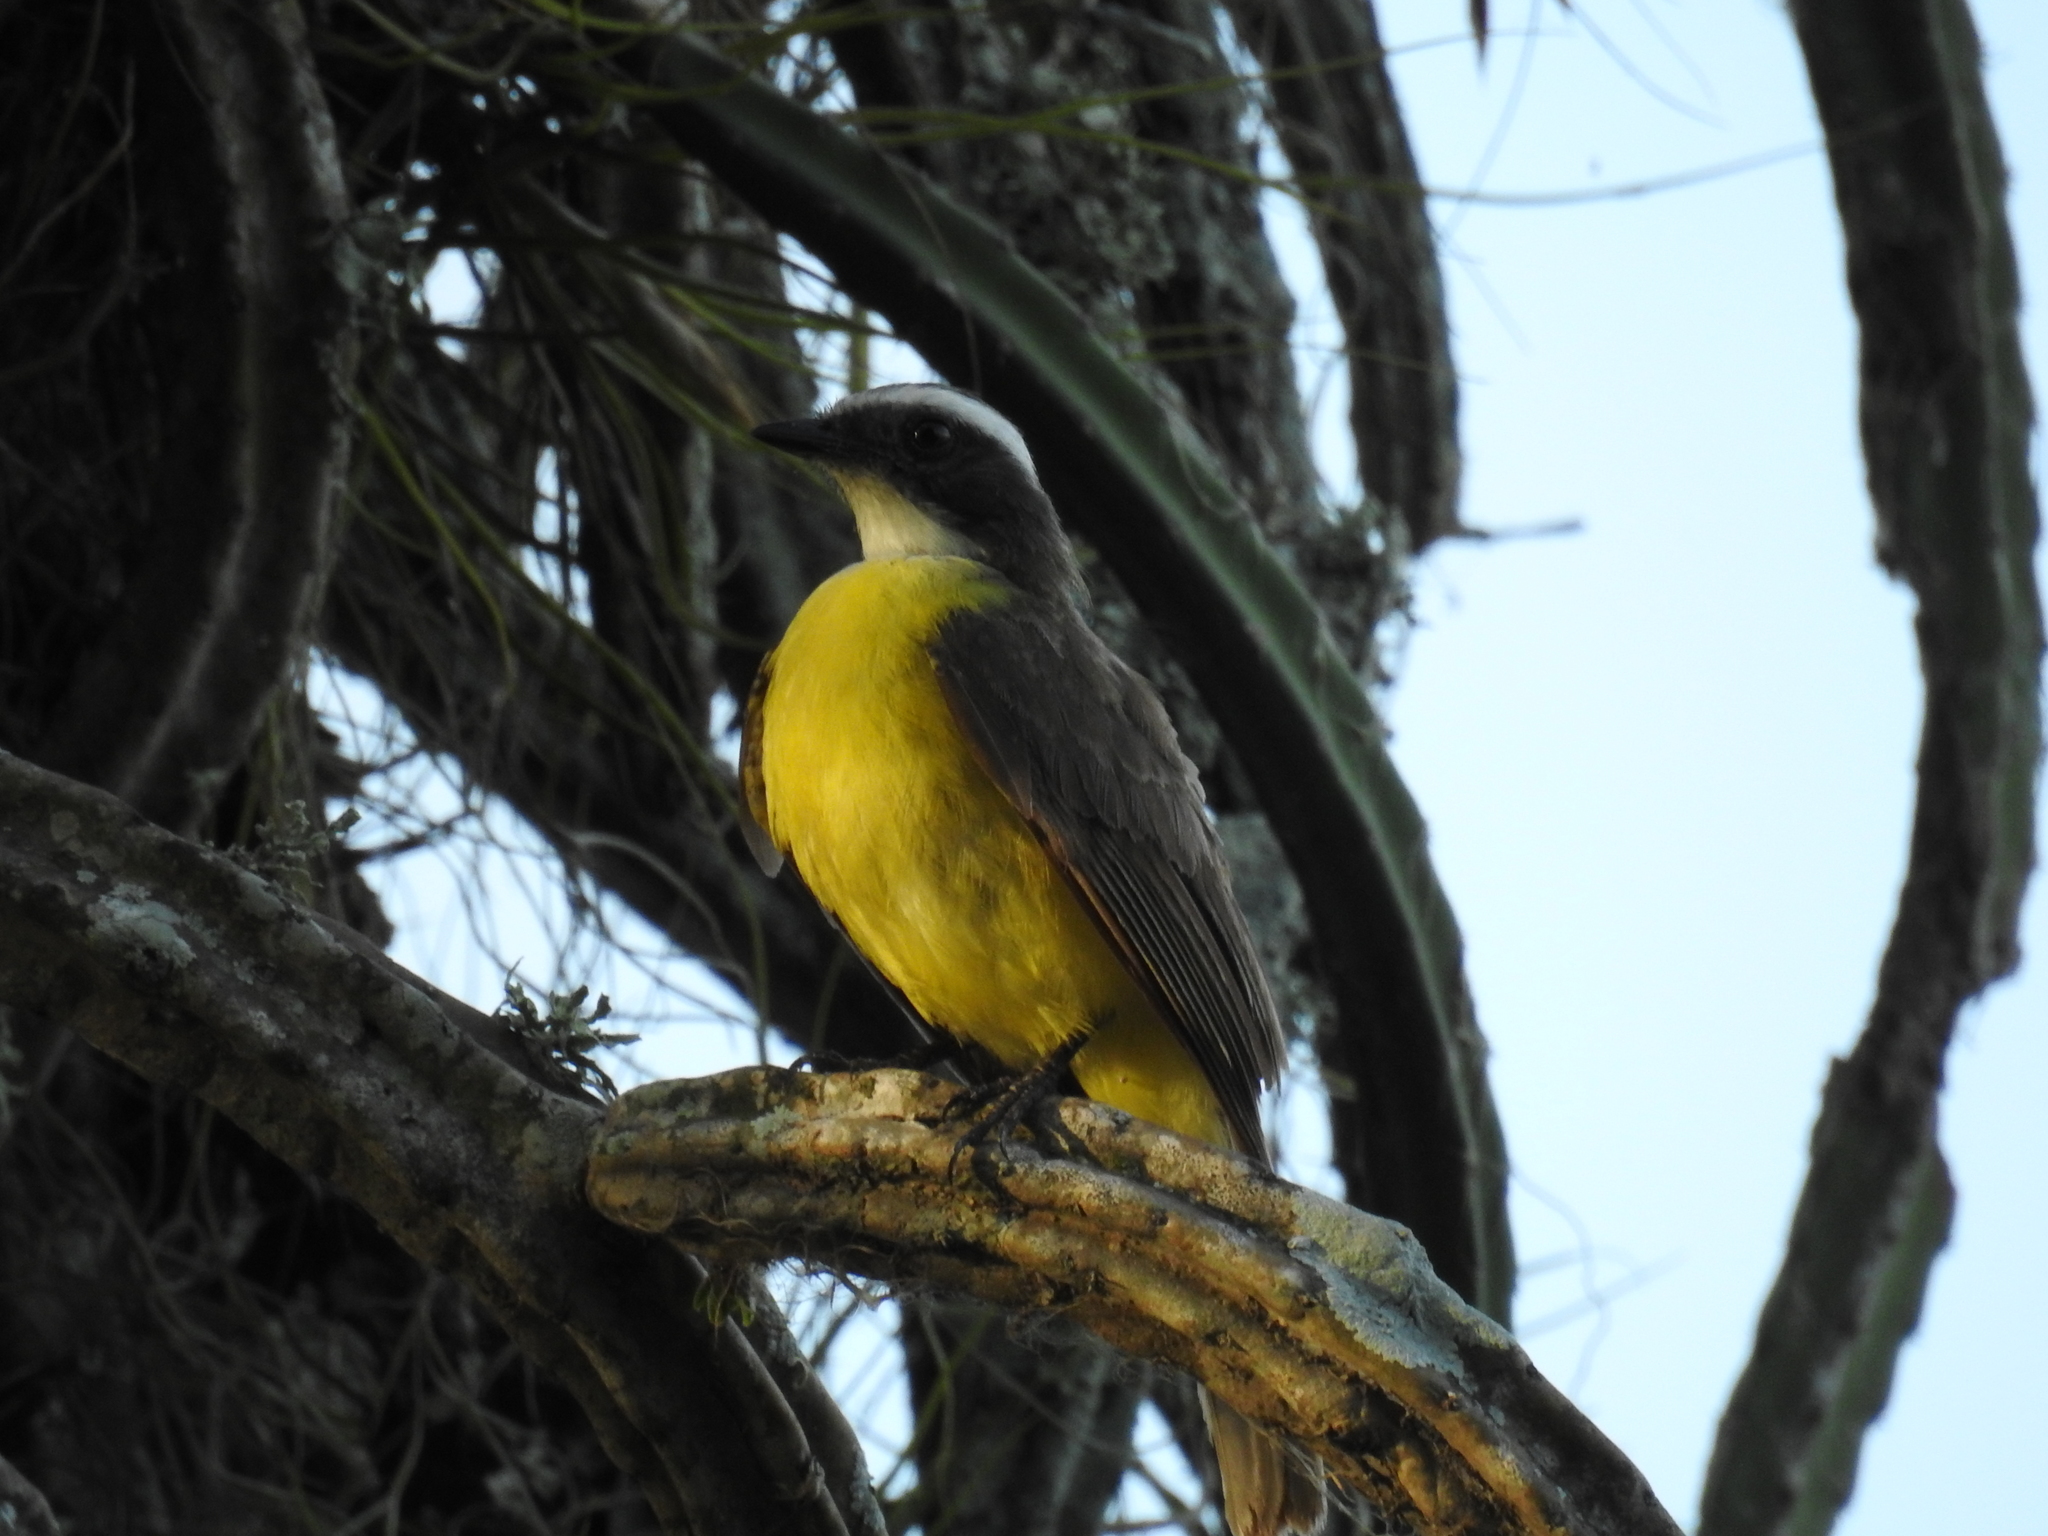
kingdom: Animalia
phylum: Chordata
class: Aves
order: Passeriformes
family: Tyrannidae
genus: Myiozetetes
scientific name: Myiozetetes similis
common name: Social flycatcher
